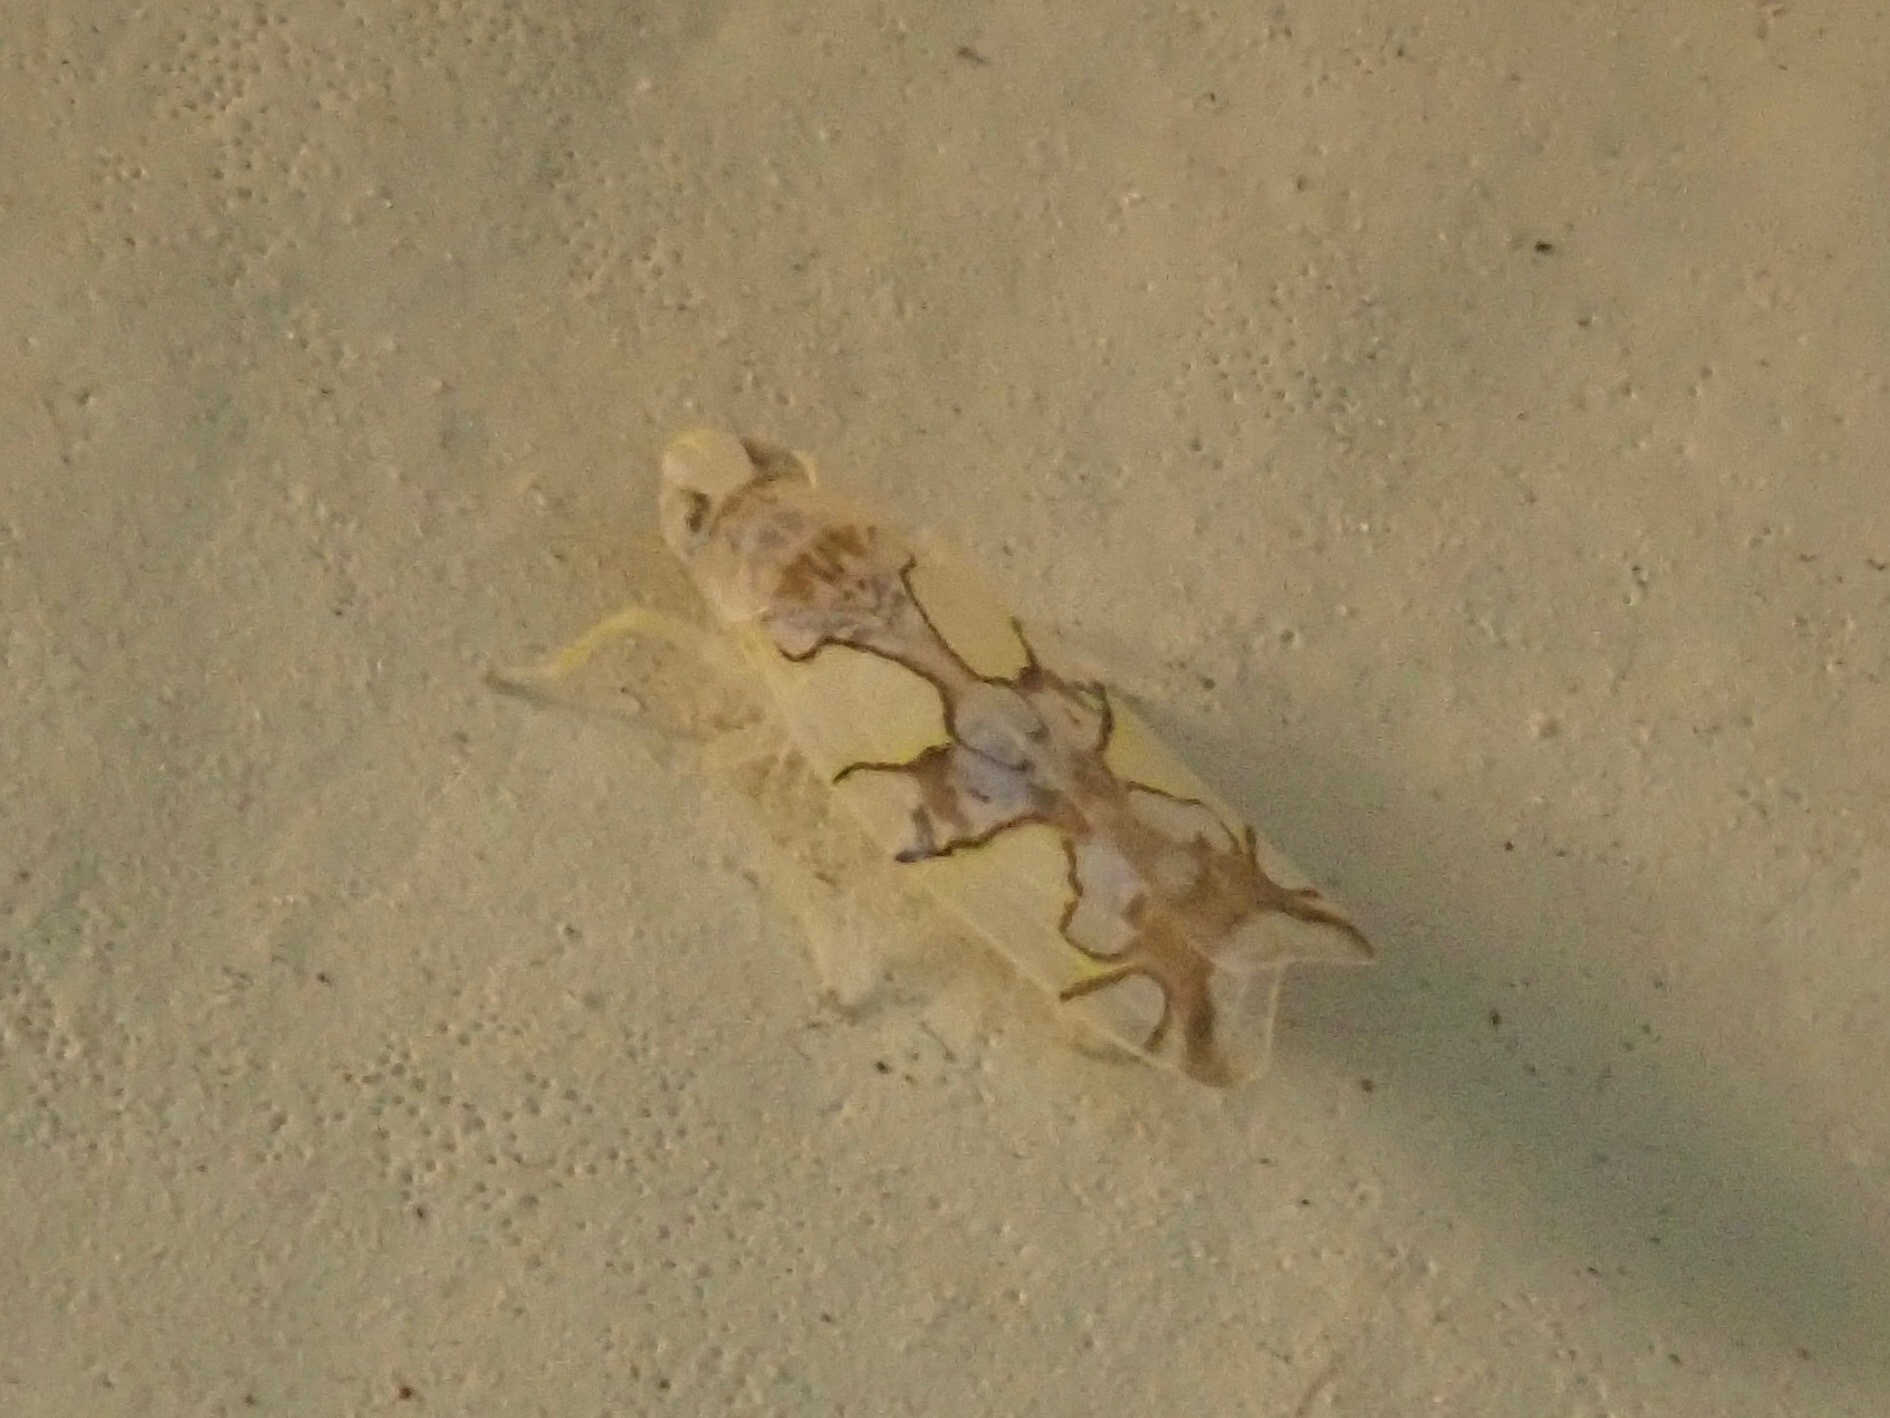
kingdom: Animalia
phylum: Arthropoda
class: Insecta
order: Hemiptera
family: Cicadellidae
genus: Protalebrella
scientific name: Protalebrella conica
